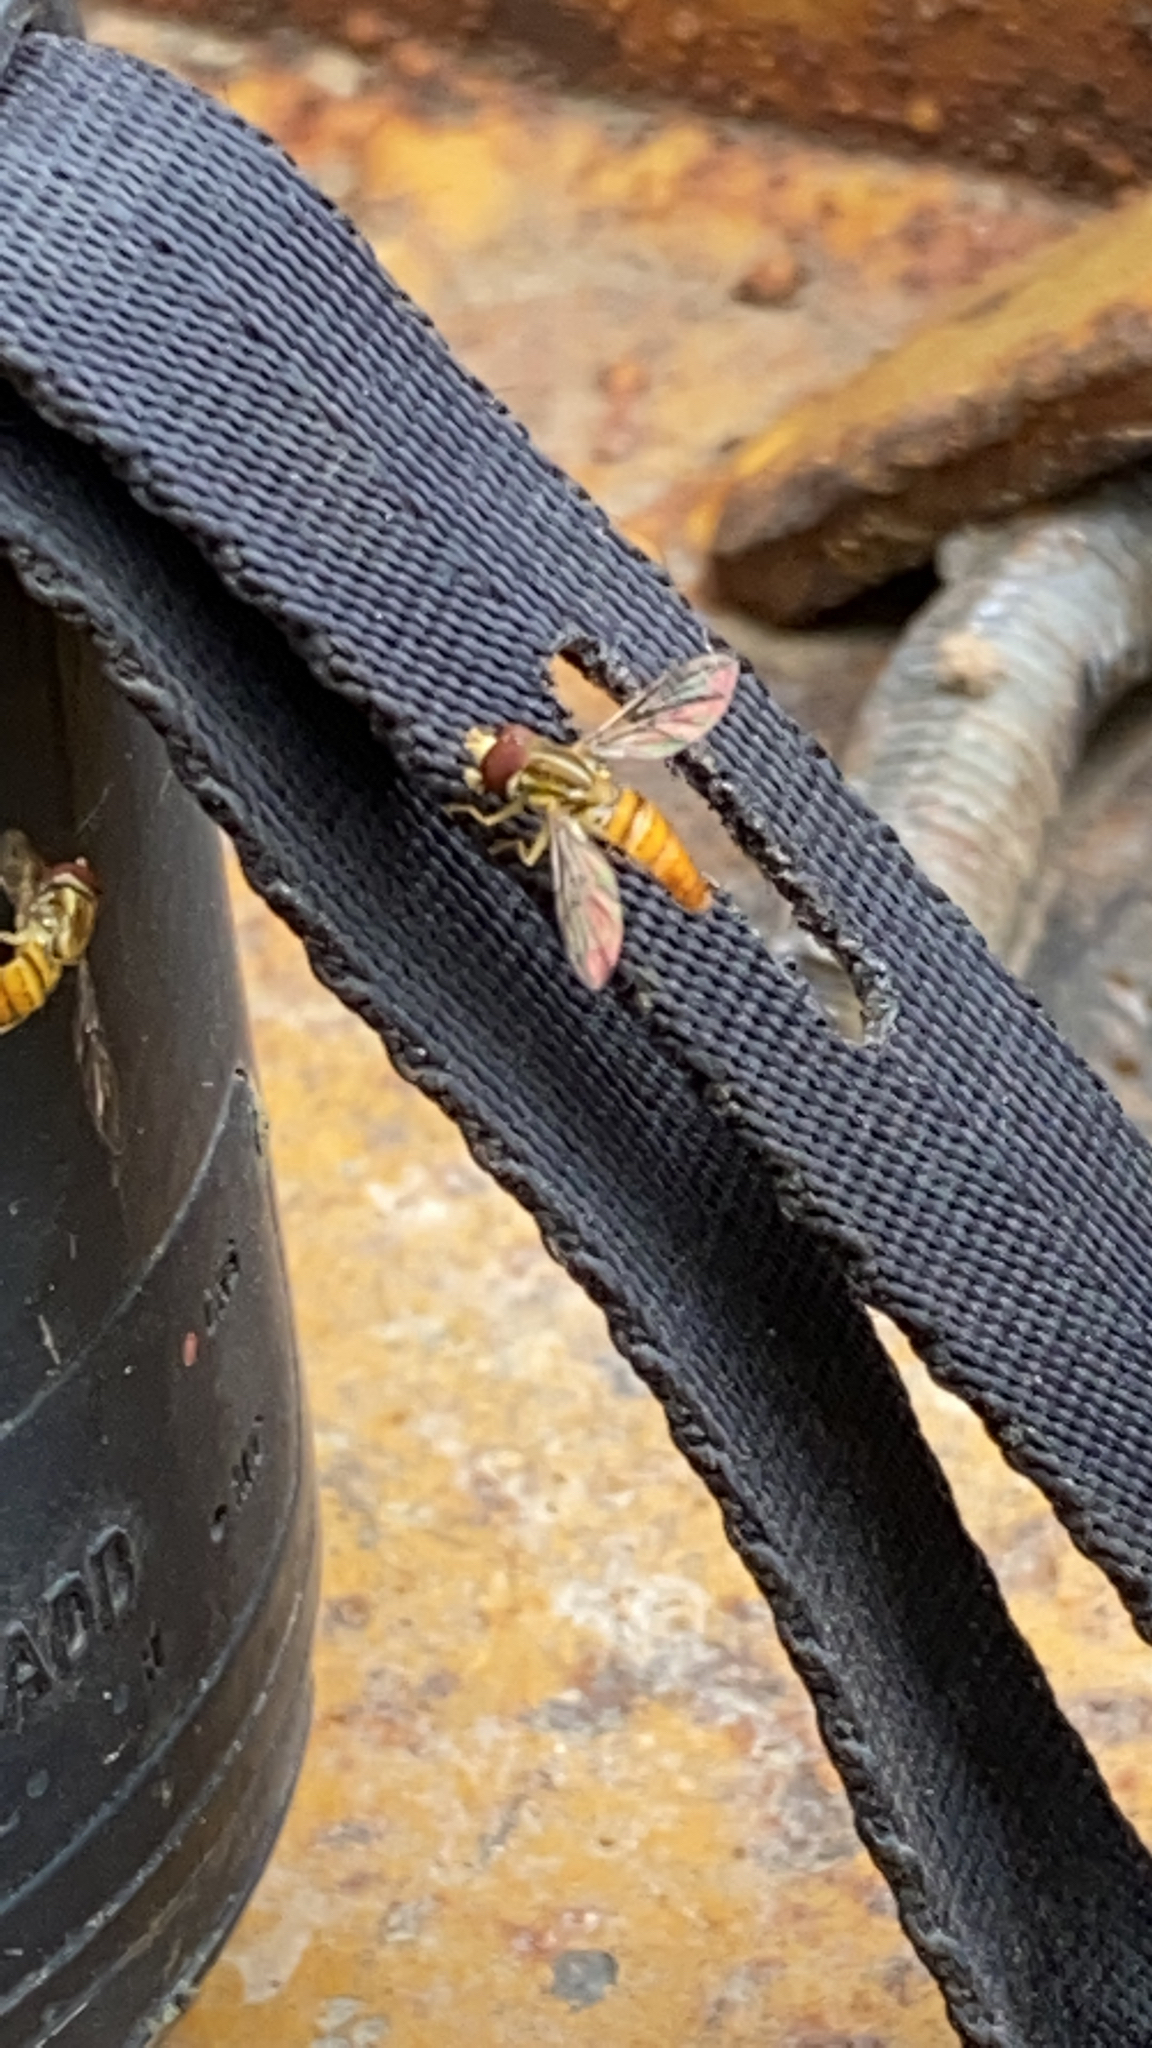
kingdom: Animalia
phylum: Arthropoda
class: Insecta
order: Diptera
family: Syrphidae
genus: Toxomerus
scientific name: Toxomerus politus
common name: Maize calligrapher
